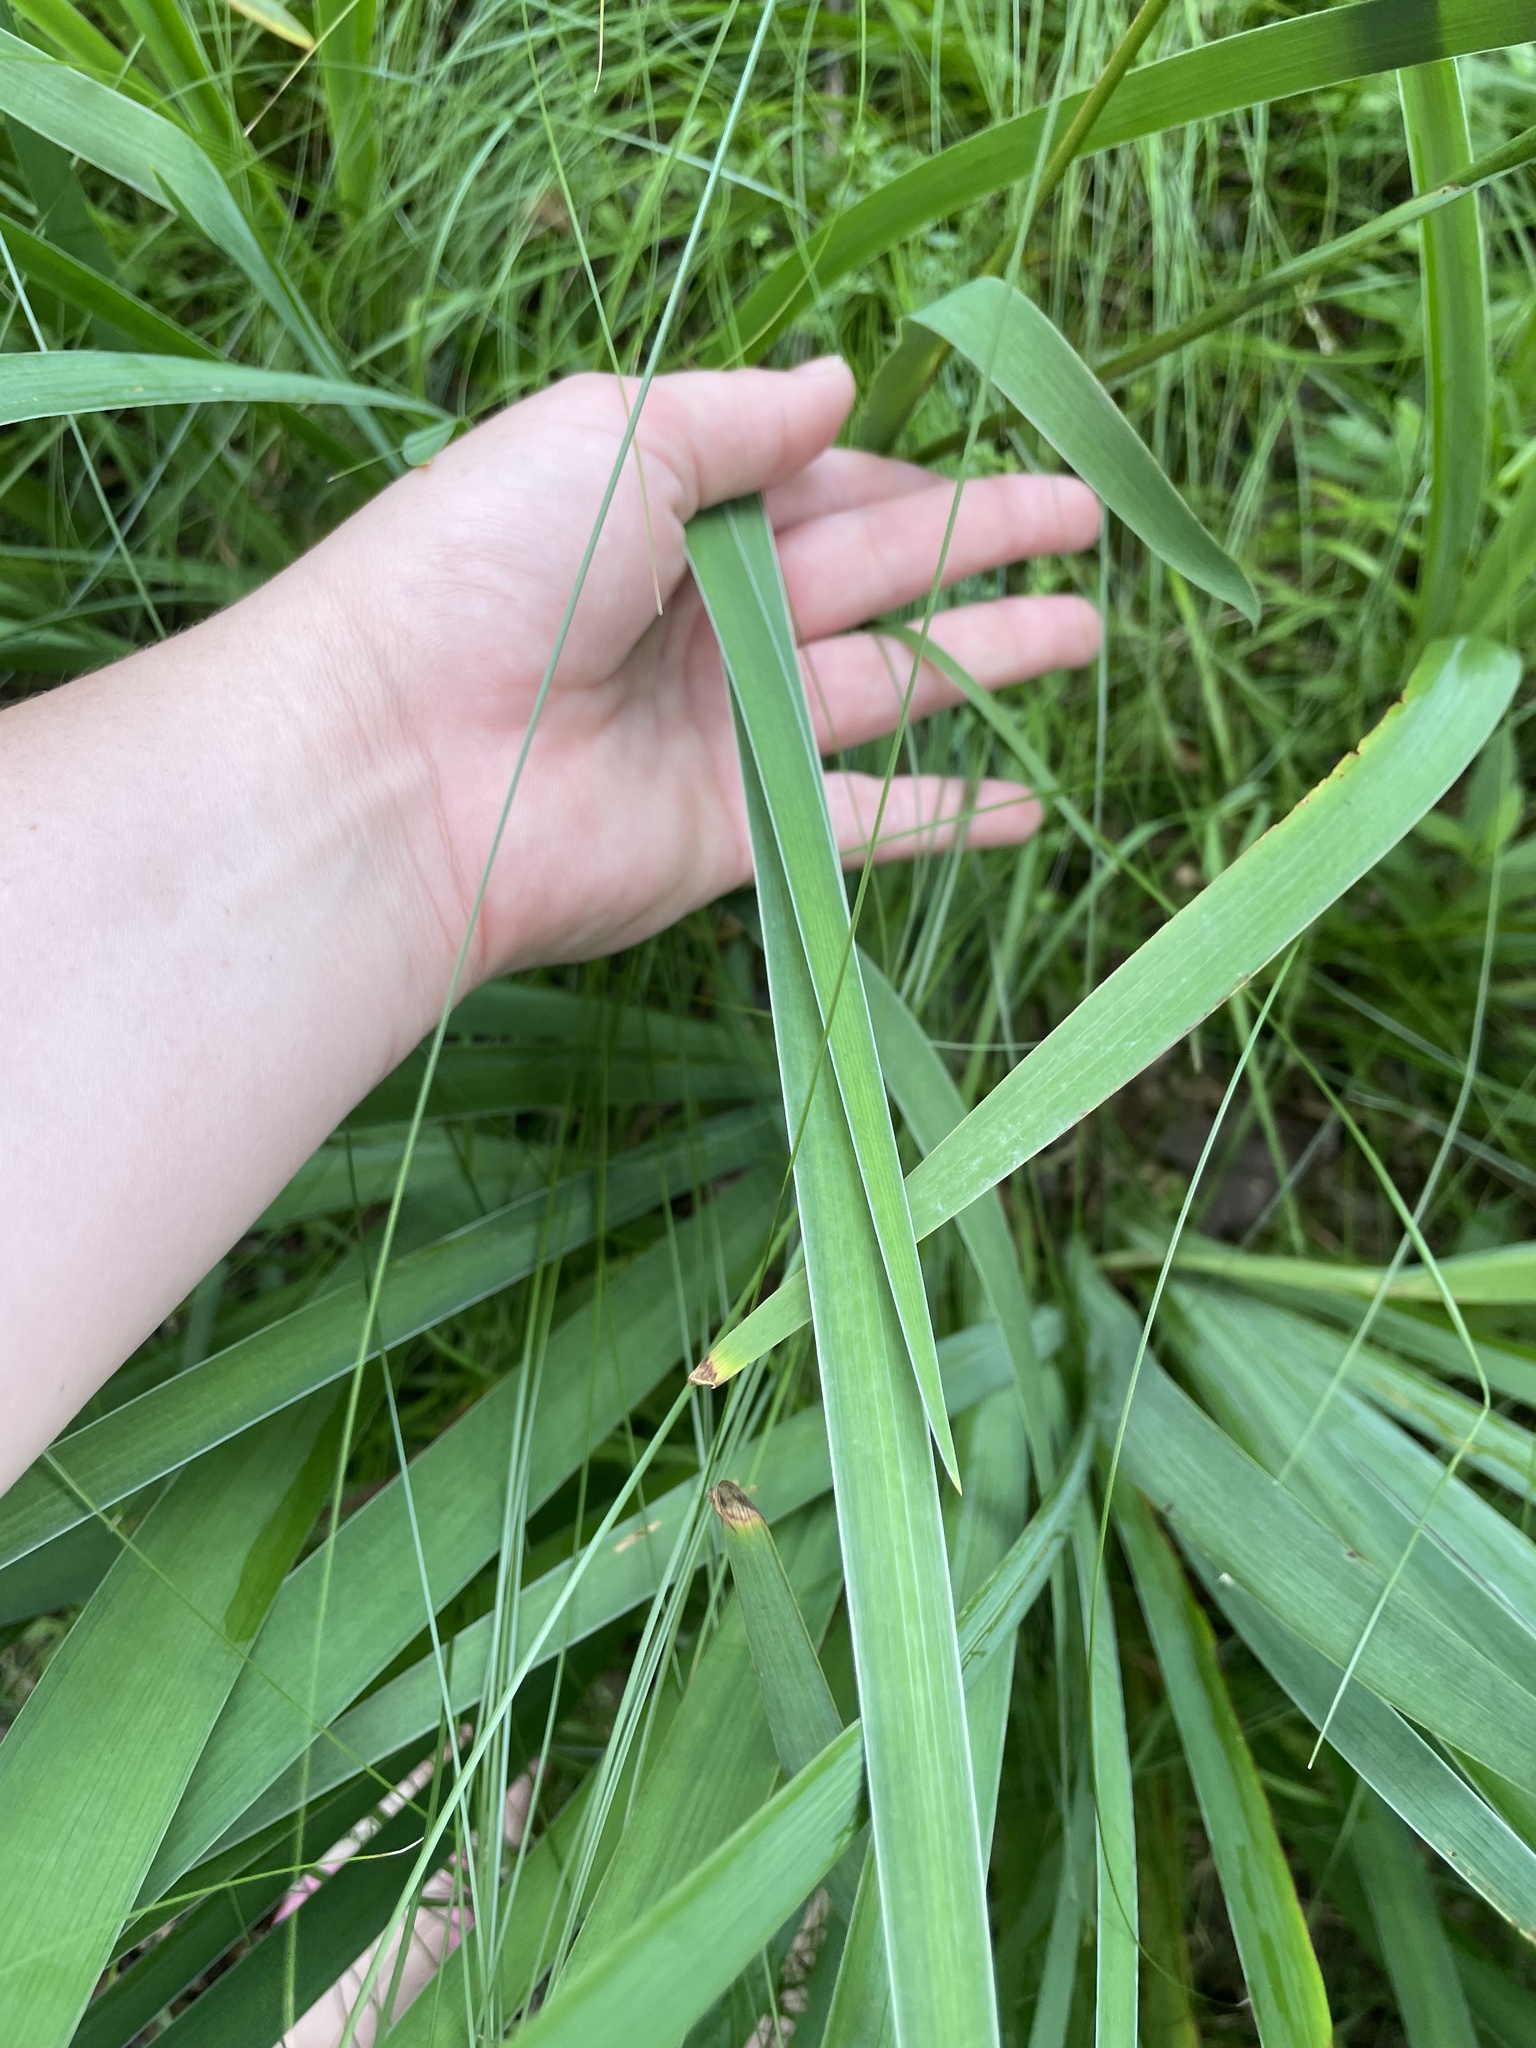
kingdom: Plantae
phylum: Tracheophyta
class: Liliopsida
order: Asparagales
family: Iridaceae
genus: Iris
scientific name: Iris versicolor
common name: Purple iris
